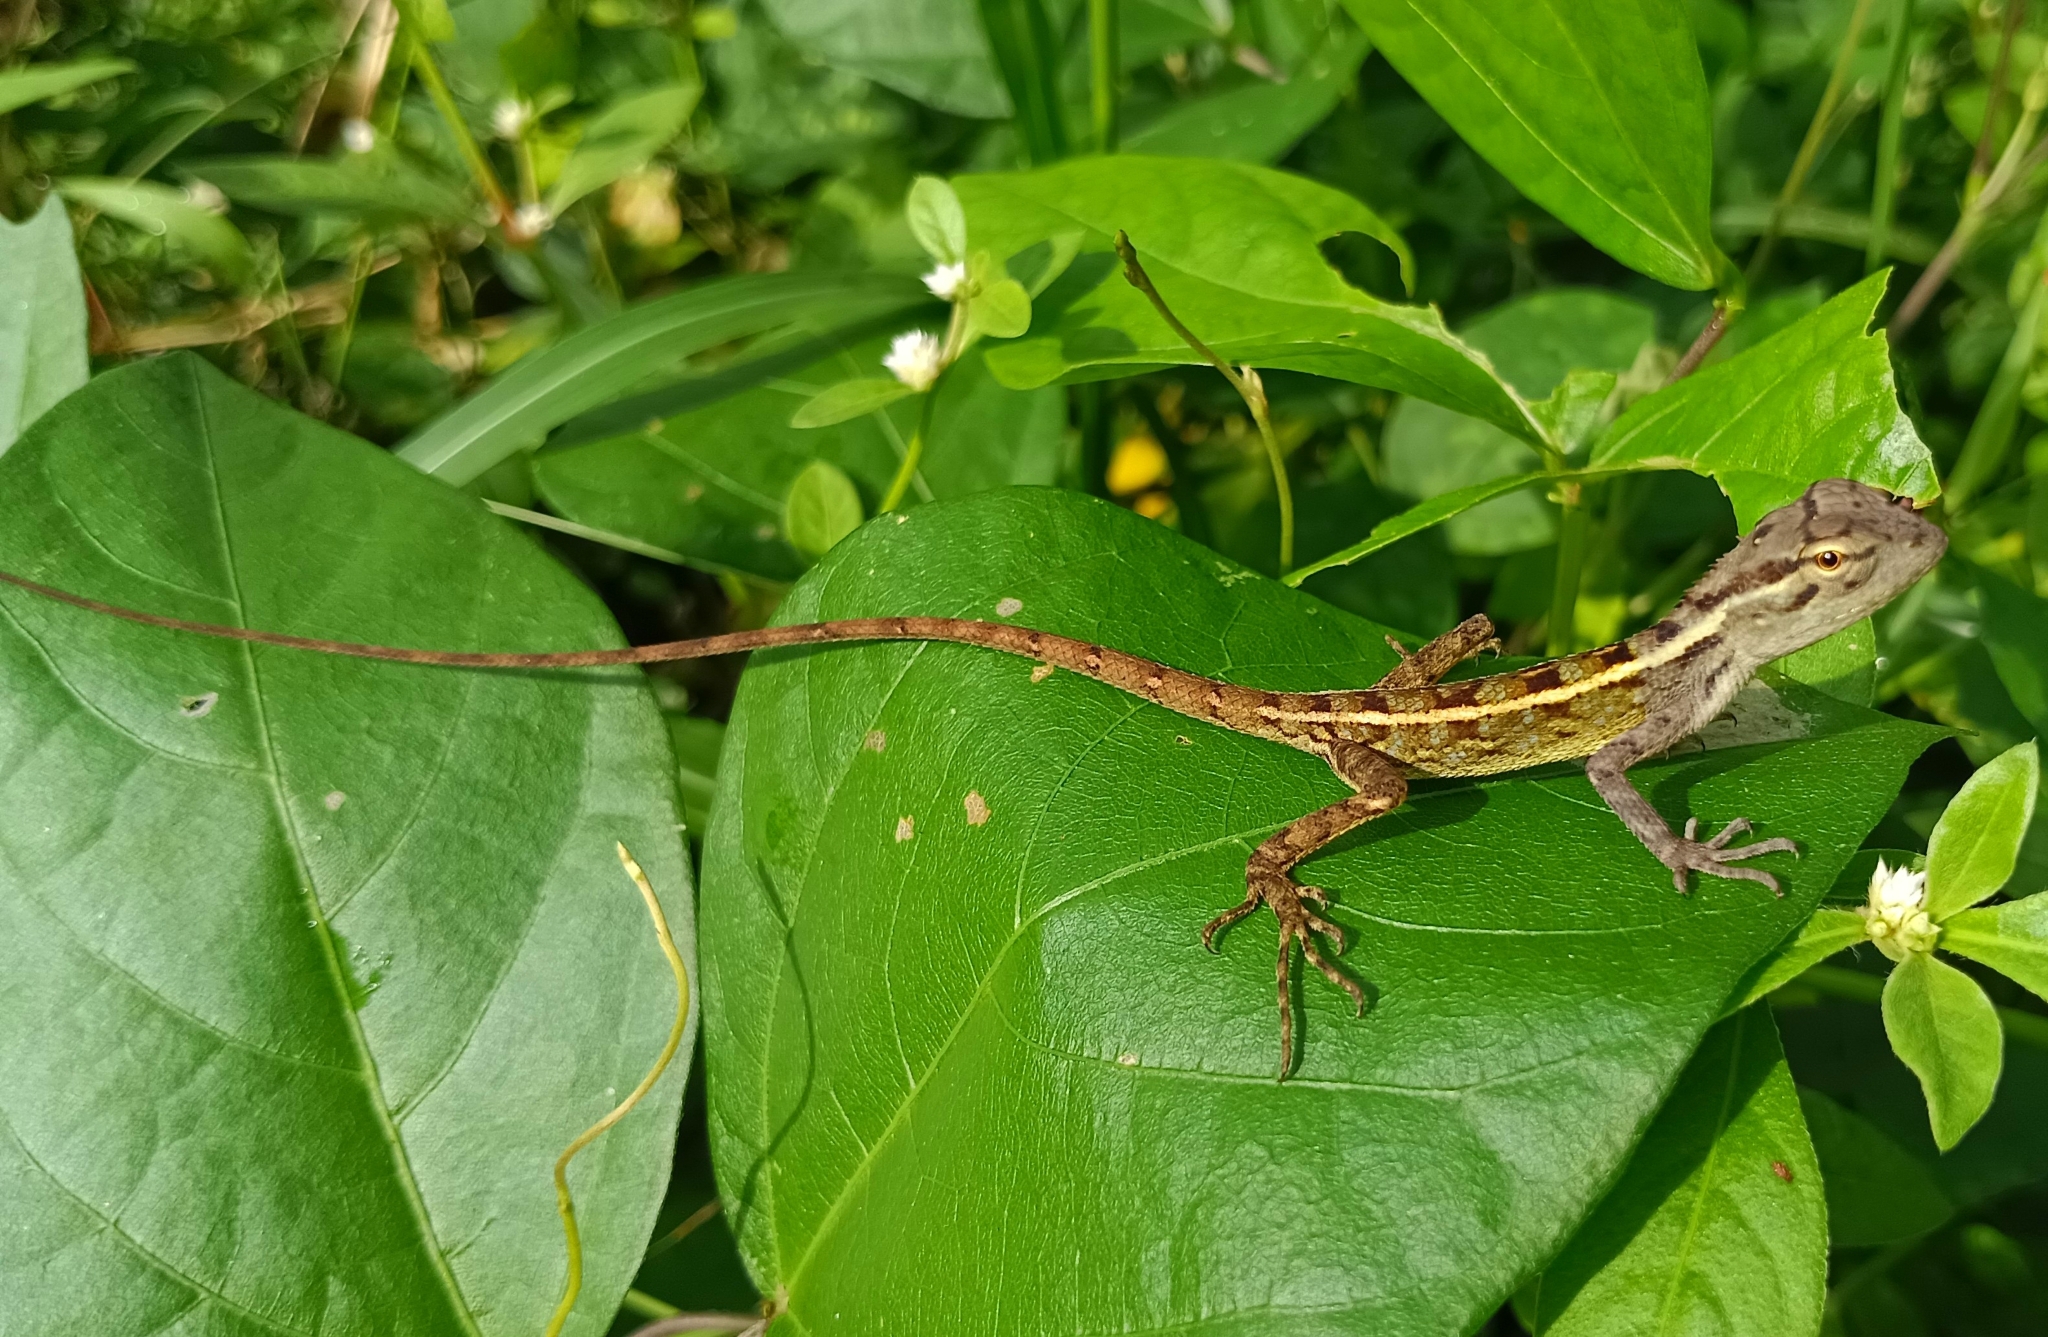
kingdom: Animalia
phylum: Chordata
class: Squamata
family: Agamidae
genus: Calotes
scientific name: Calotes versicolor
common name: Oriental garden lizard
